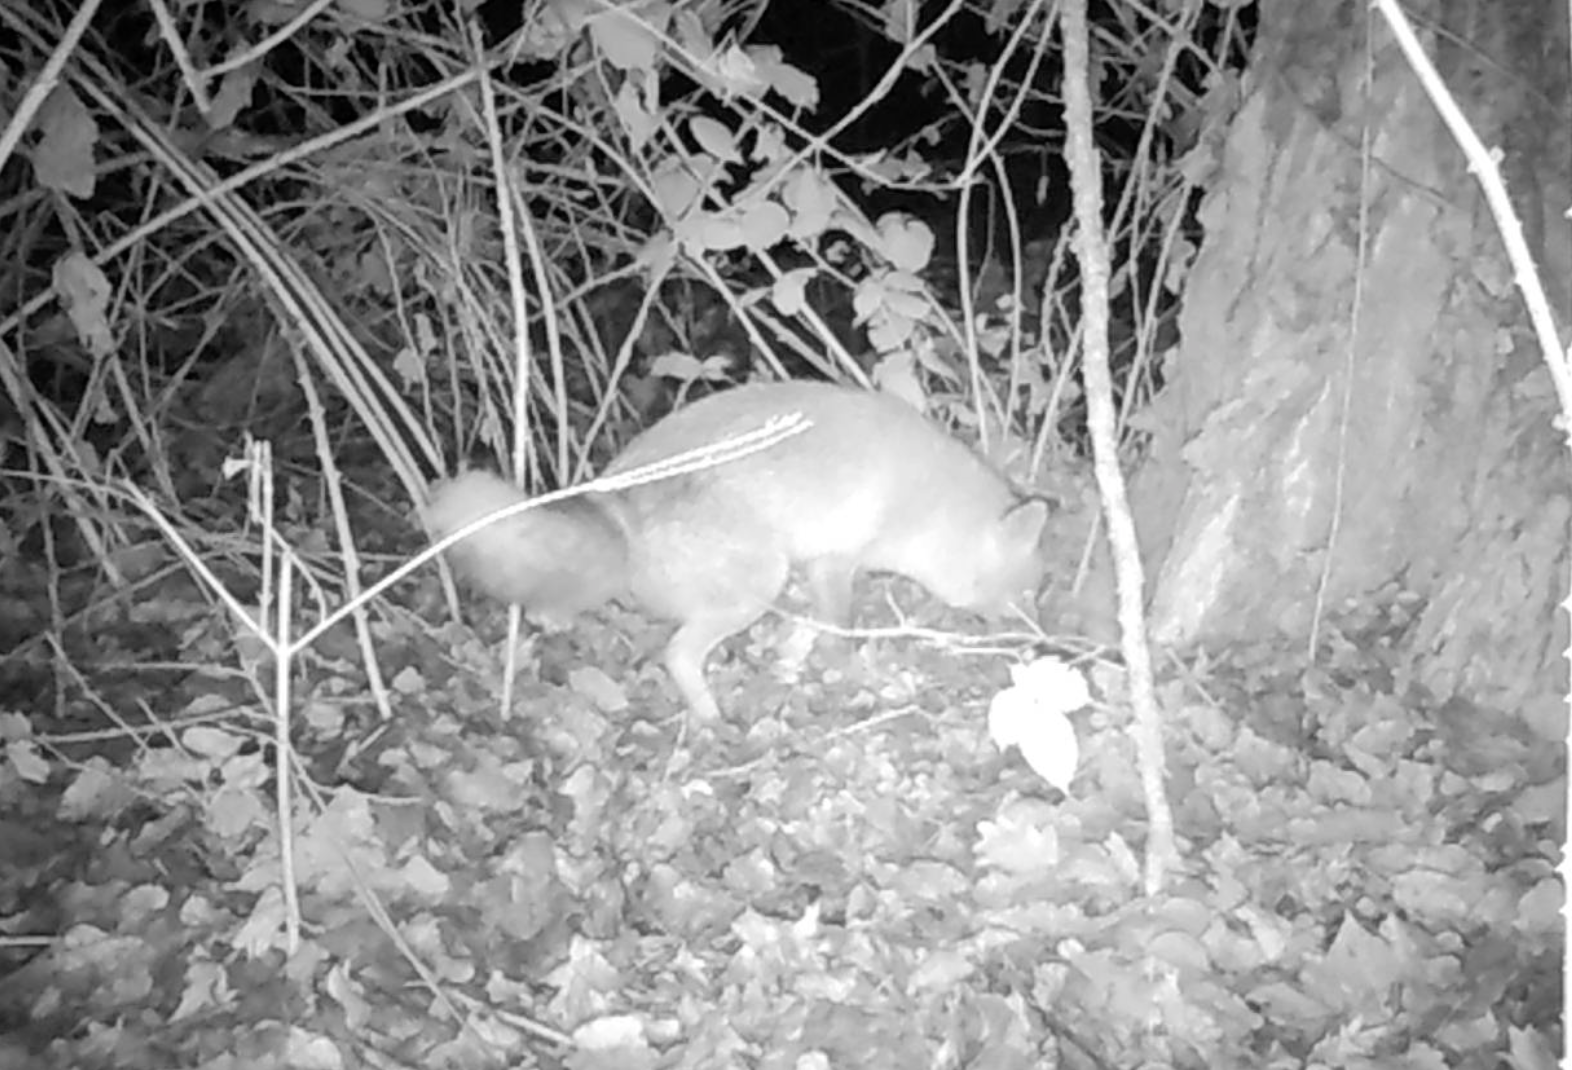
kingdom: Animalia
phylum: Chordata
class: Mammalia
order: Carnivora
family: Canidae
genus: Vulpes
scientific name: Vulpes vulpes
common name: Red fox
